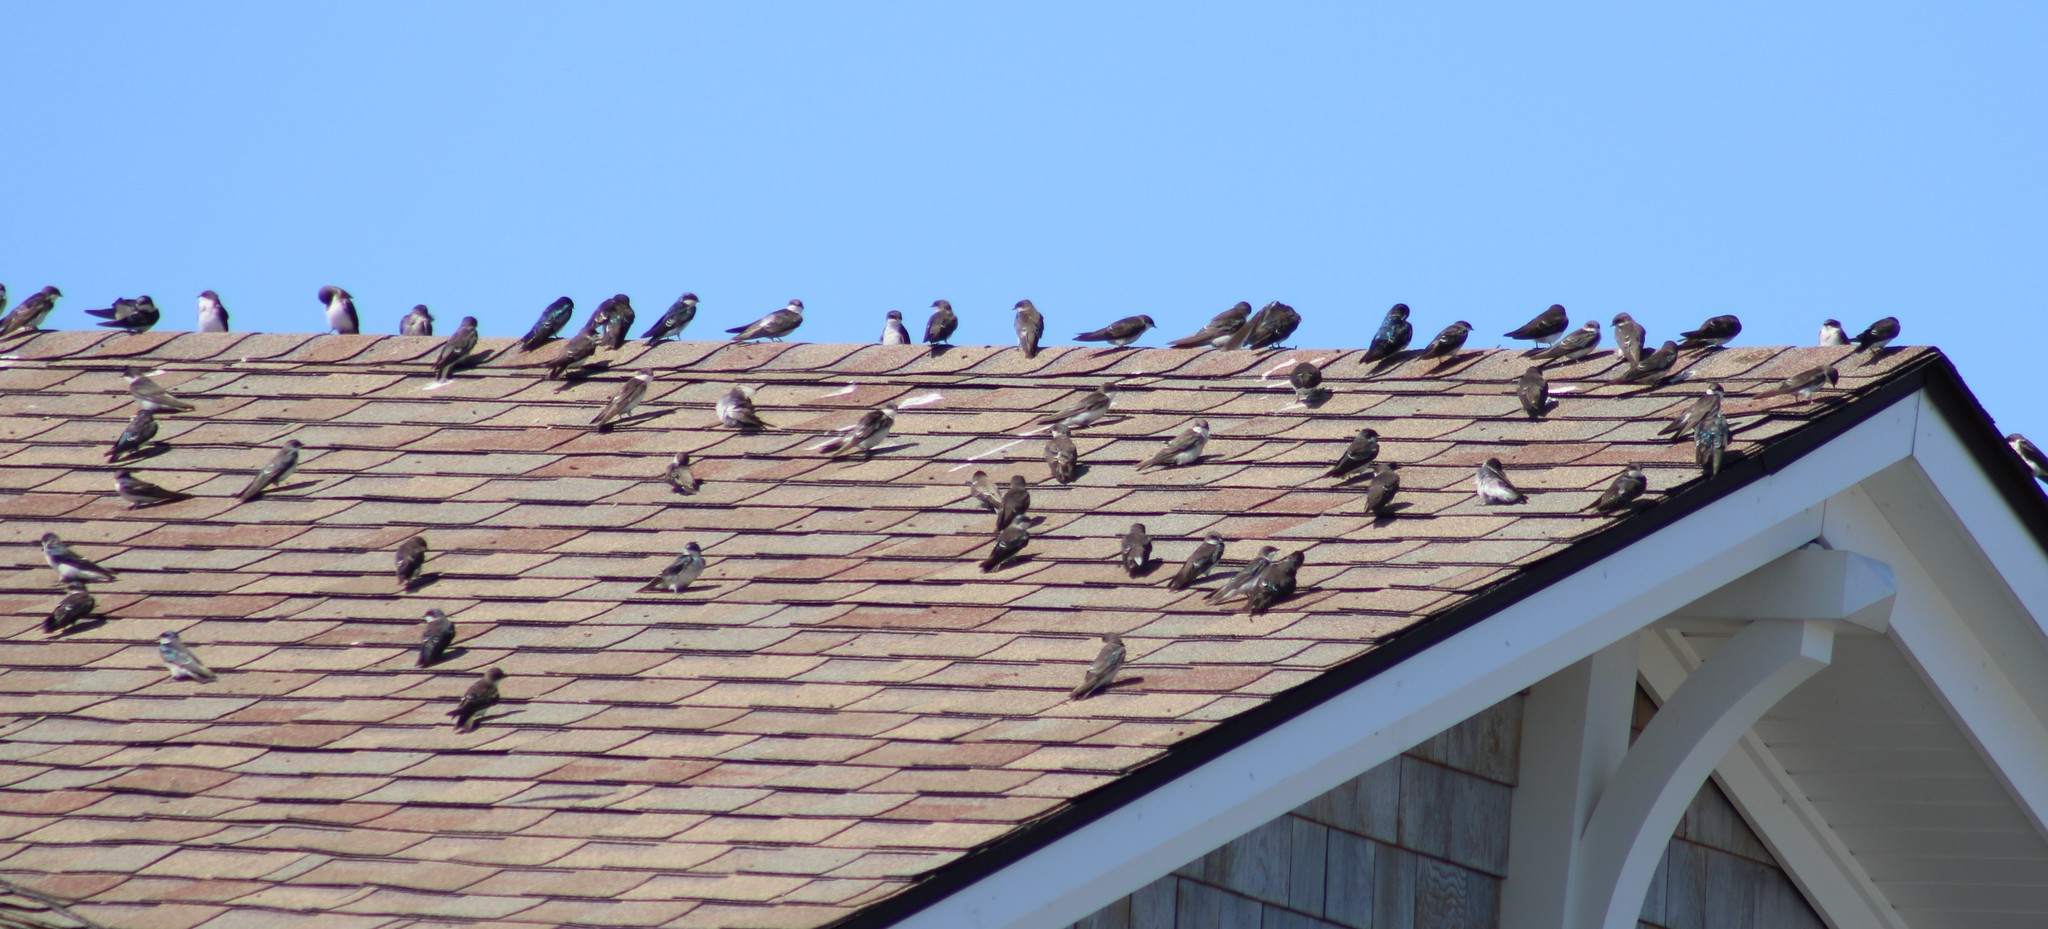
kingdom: Animalia
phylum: Chordata
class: Aves
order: Passeriformes
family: Hirundinidae
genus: Tachycineta
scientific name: Tachycineta bicolor
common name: Tree swallow
